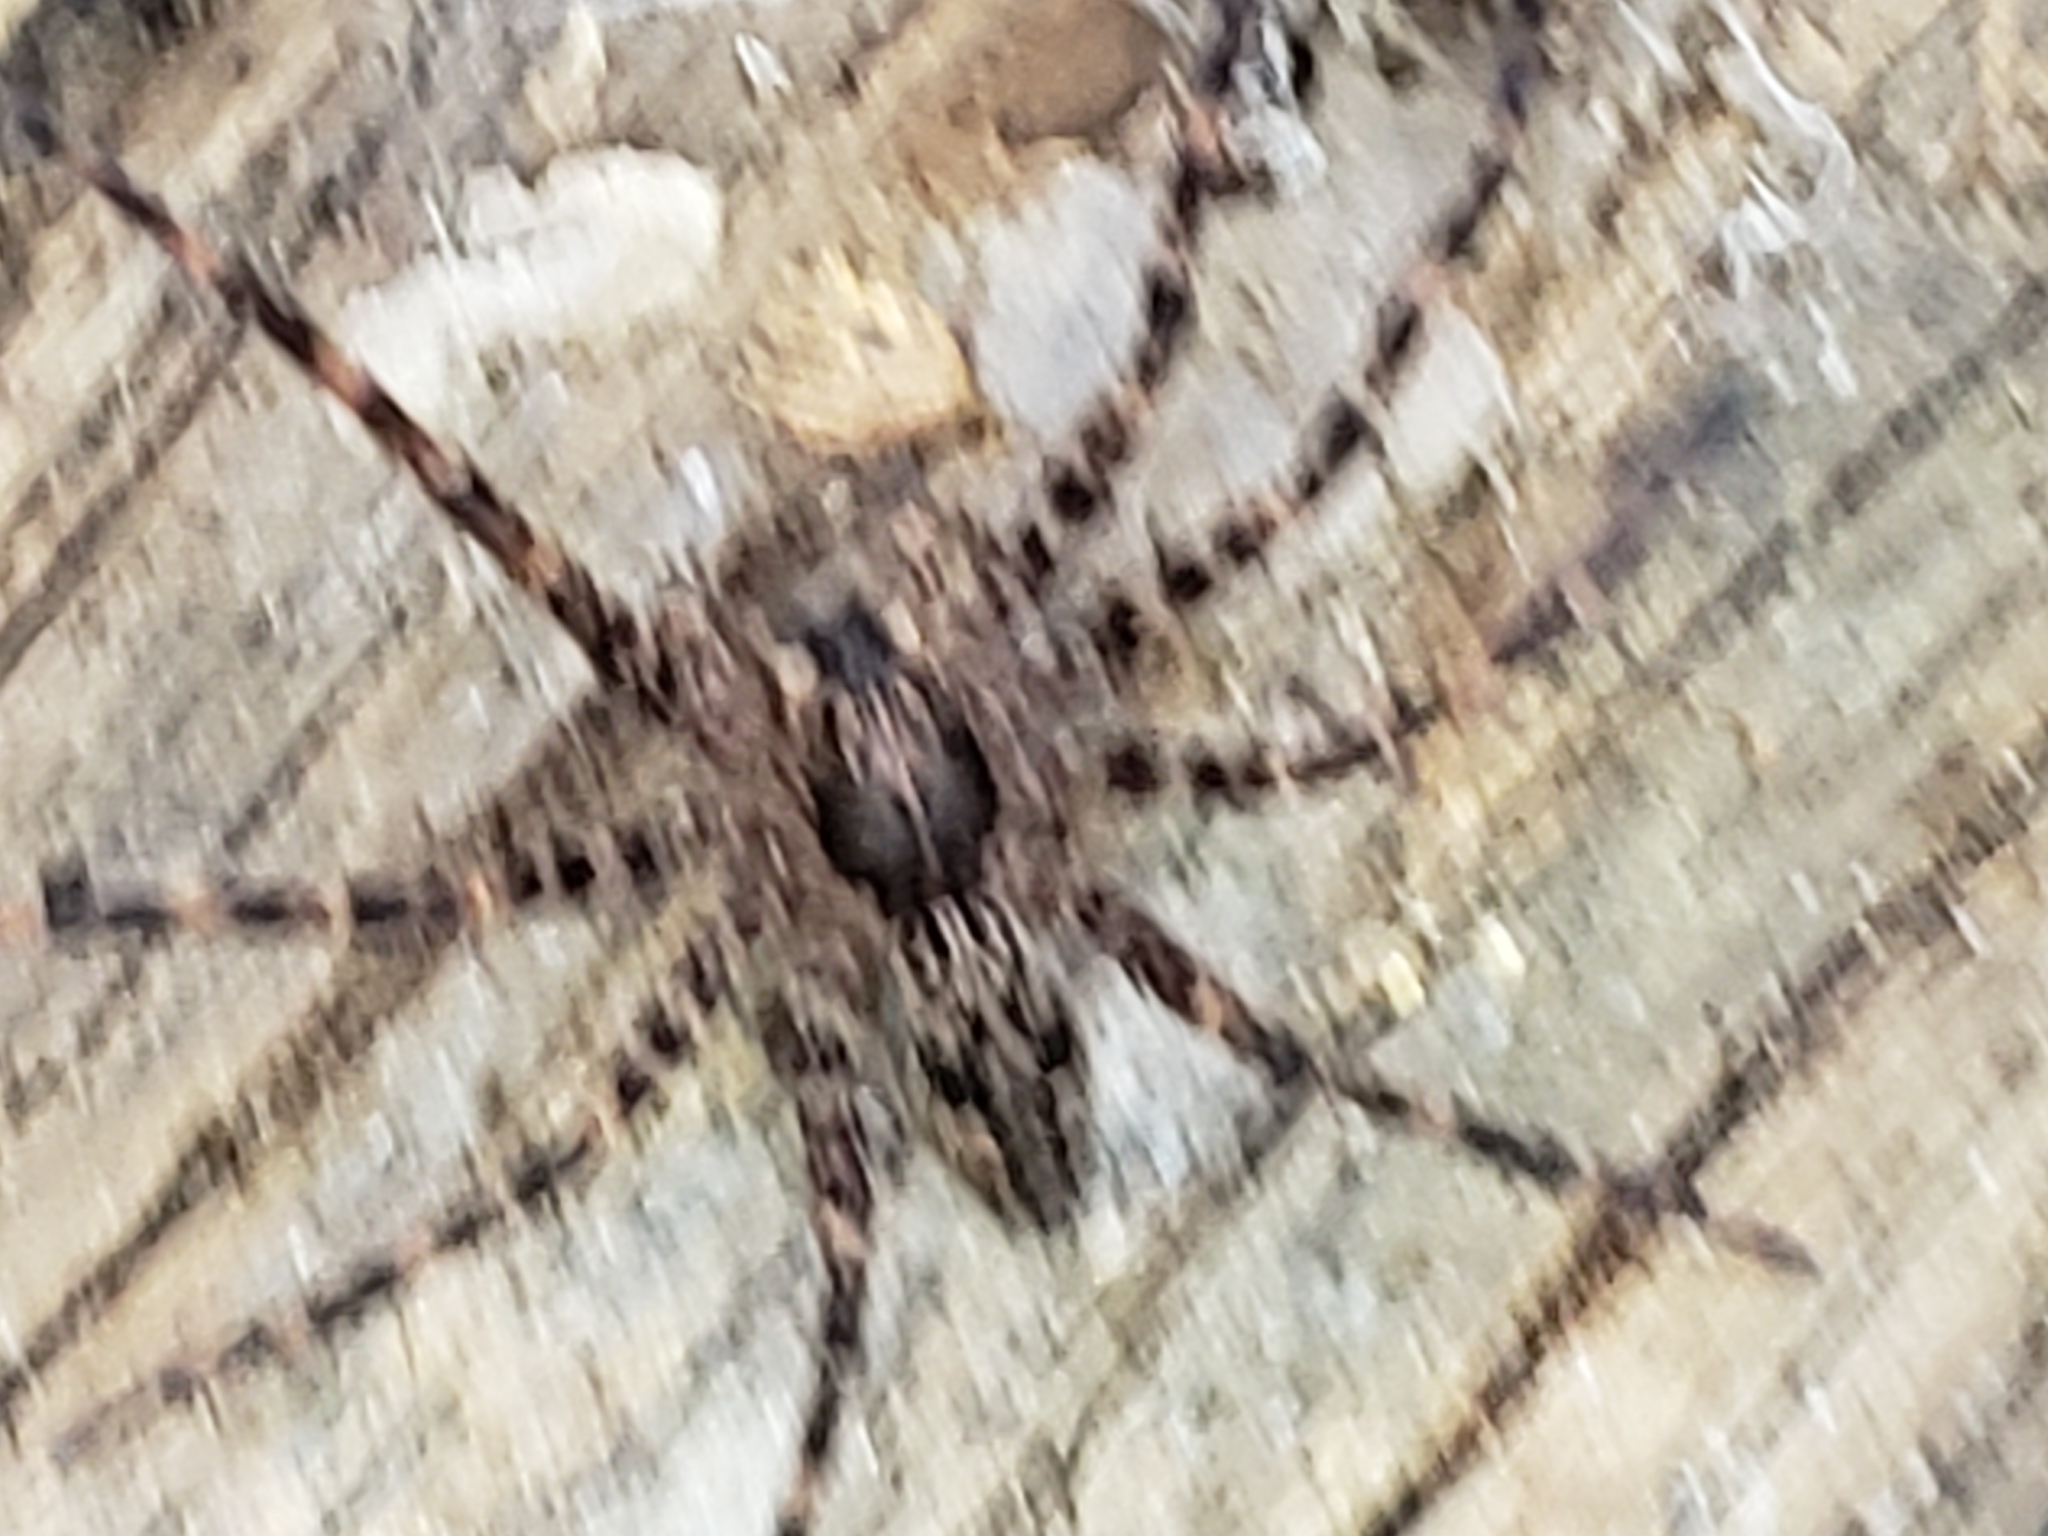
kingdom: Animalia
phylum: Arthropoda
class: Arachnida
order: Araneae
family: Pisauridae
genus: Dolomedes
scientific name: Dolomedes tenebrosus
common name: Dark fishing spider
